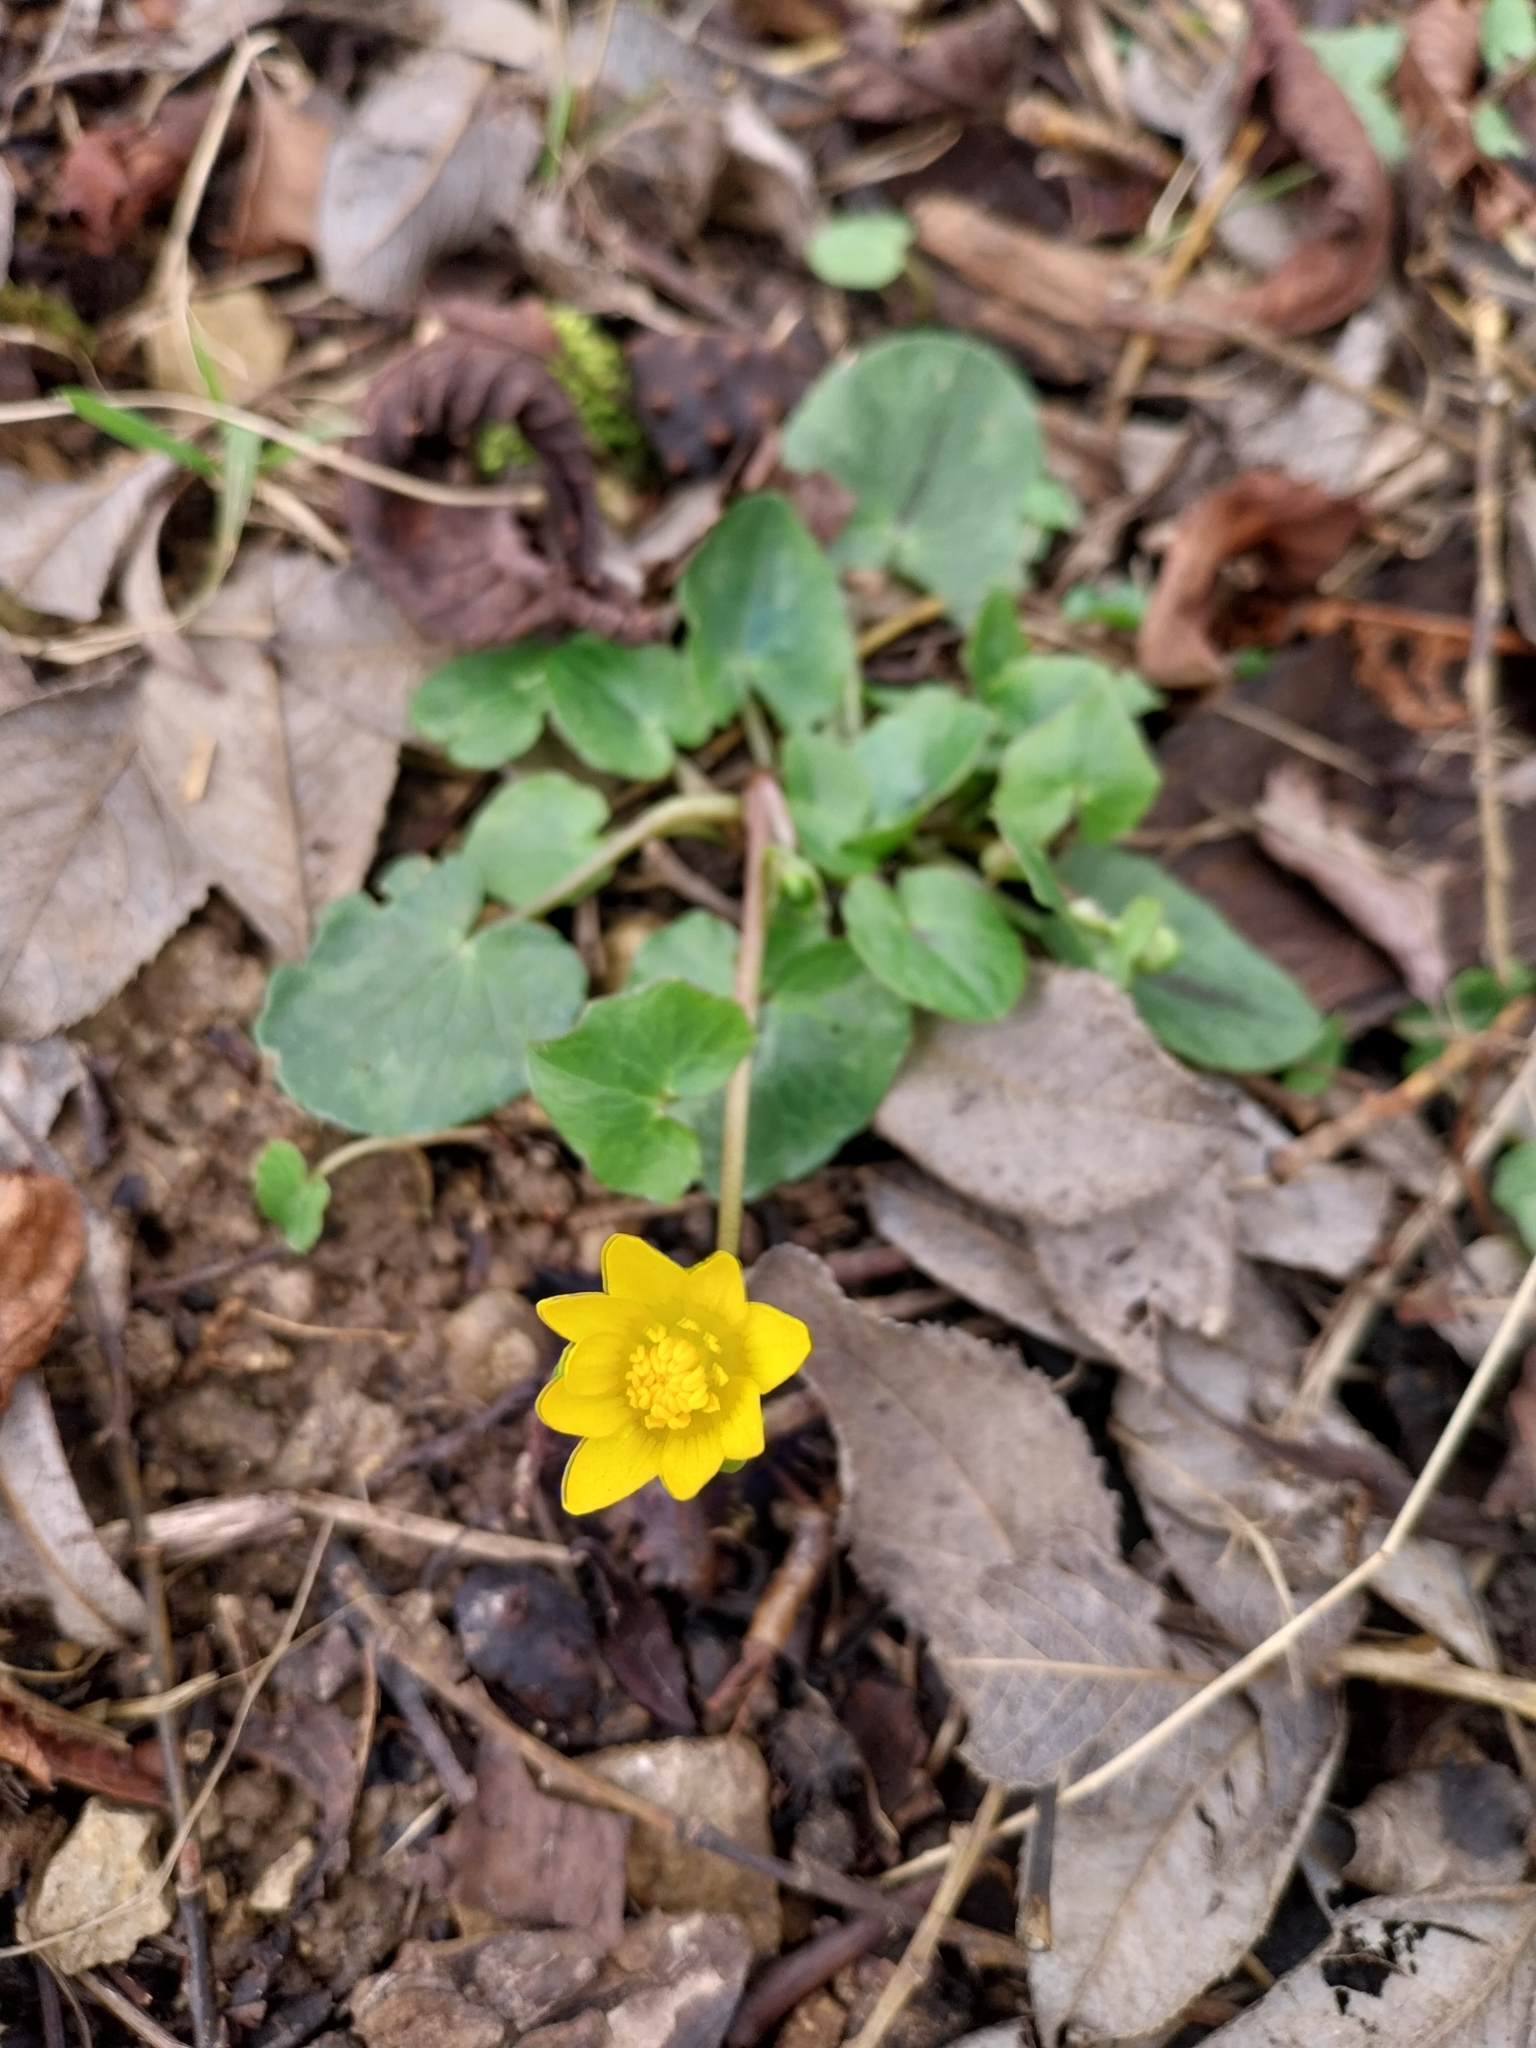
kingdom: Plantae
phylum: Tracheophyta
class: Magnoliopsida
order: Ranunculales
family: Ranunculaceae
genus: Ficaria
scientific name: Ficaria verna
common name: Lesser celandine
